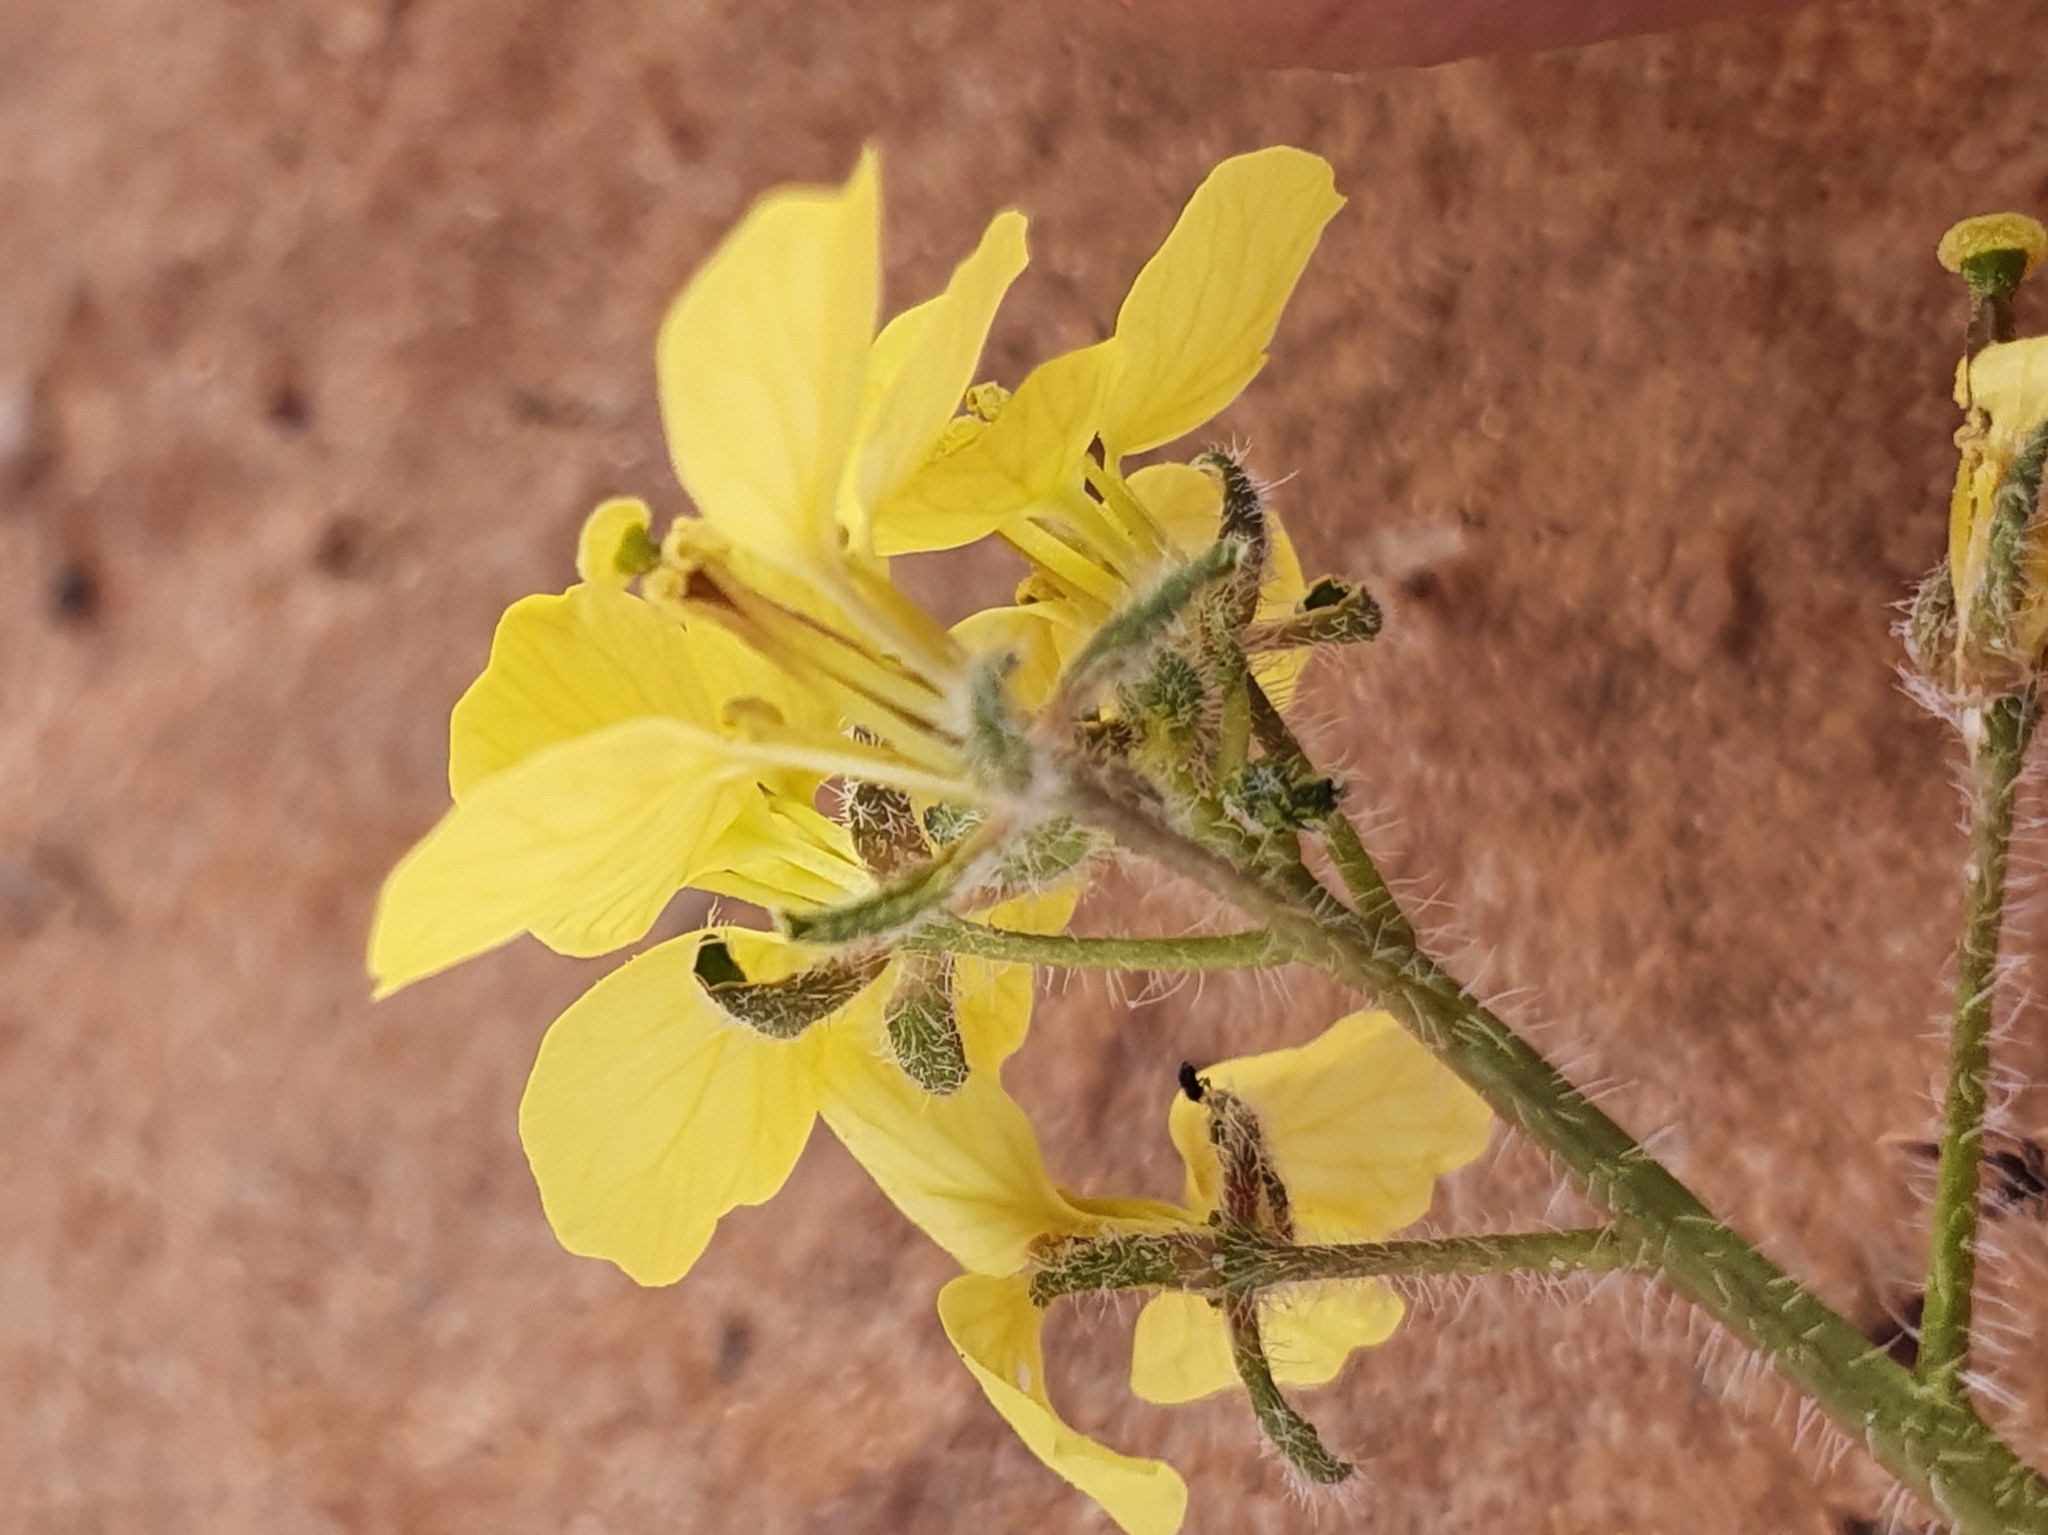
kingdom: Plantae
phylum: Tracheophyta
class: Magnoliopsida
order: Brassicales
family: Brassicaceae
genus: Diplotaxis
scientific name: Diplotaxis virgata
